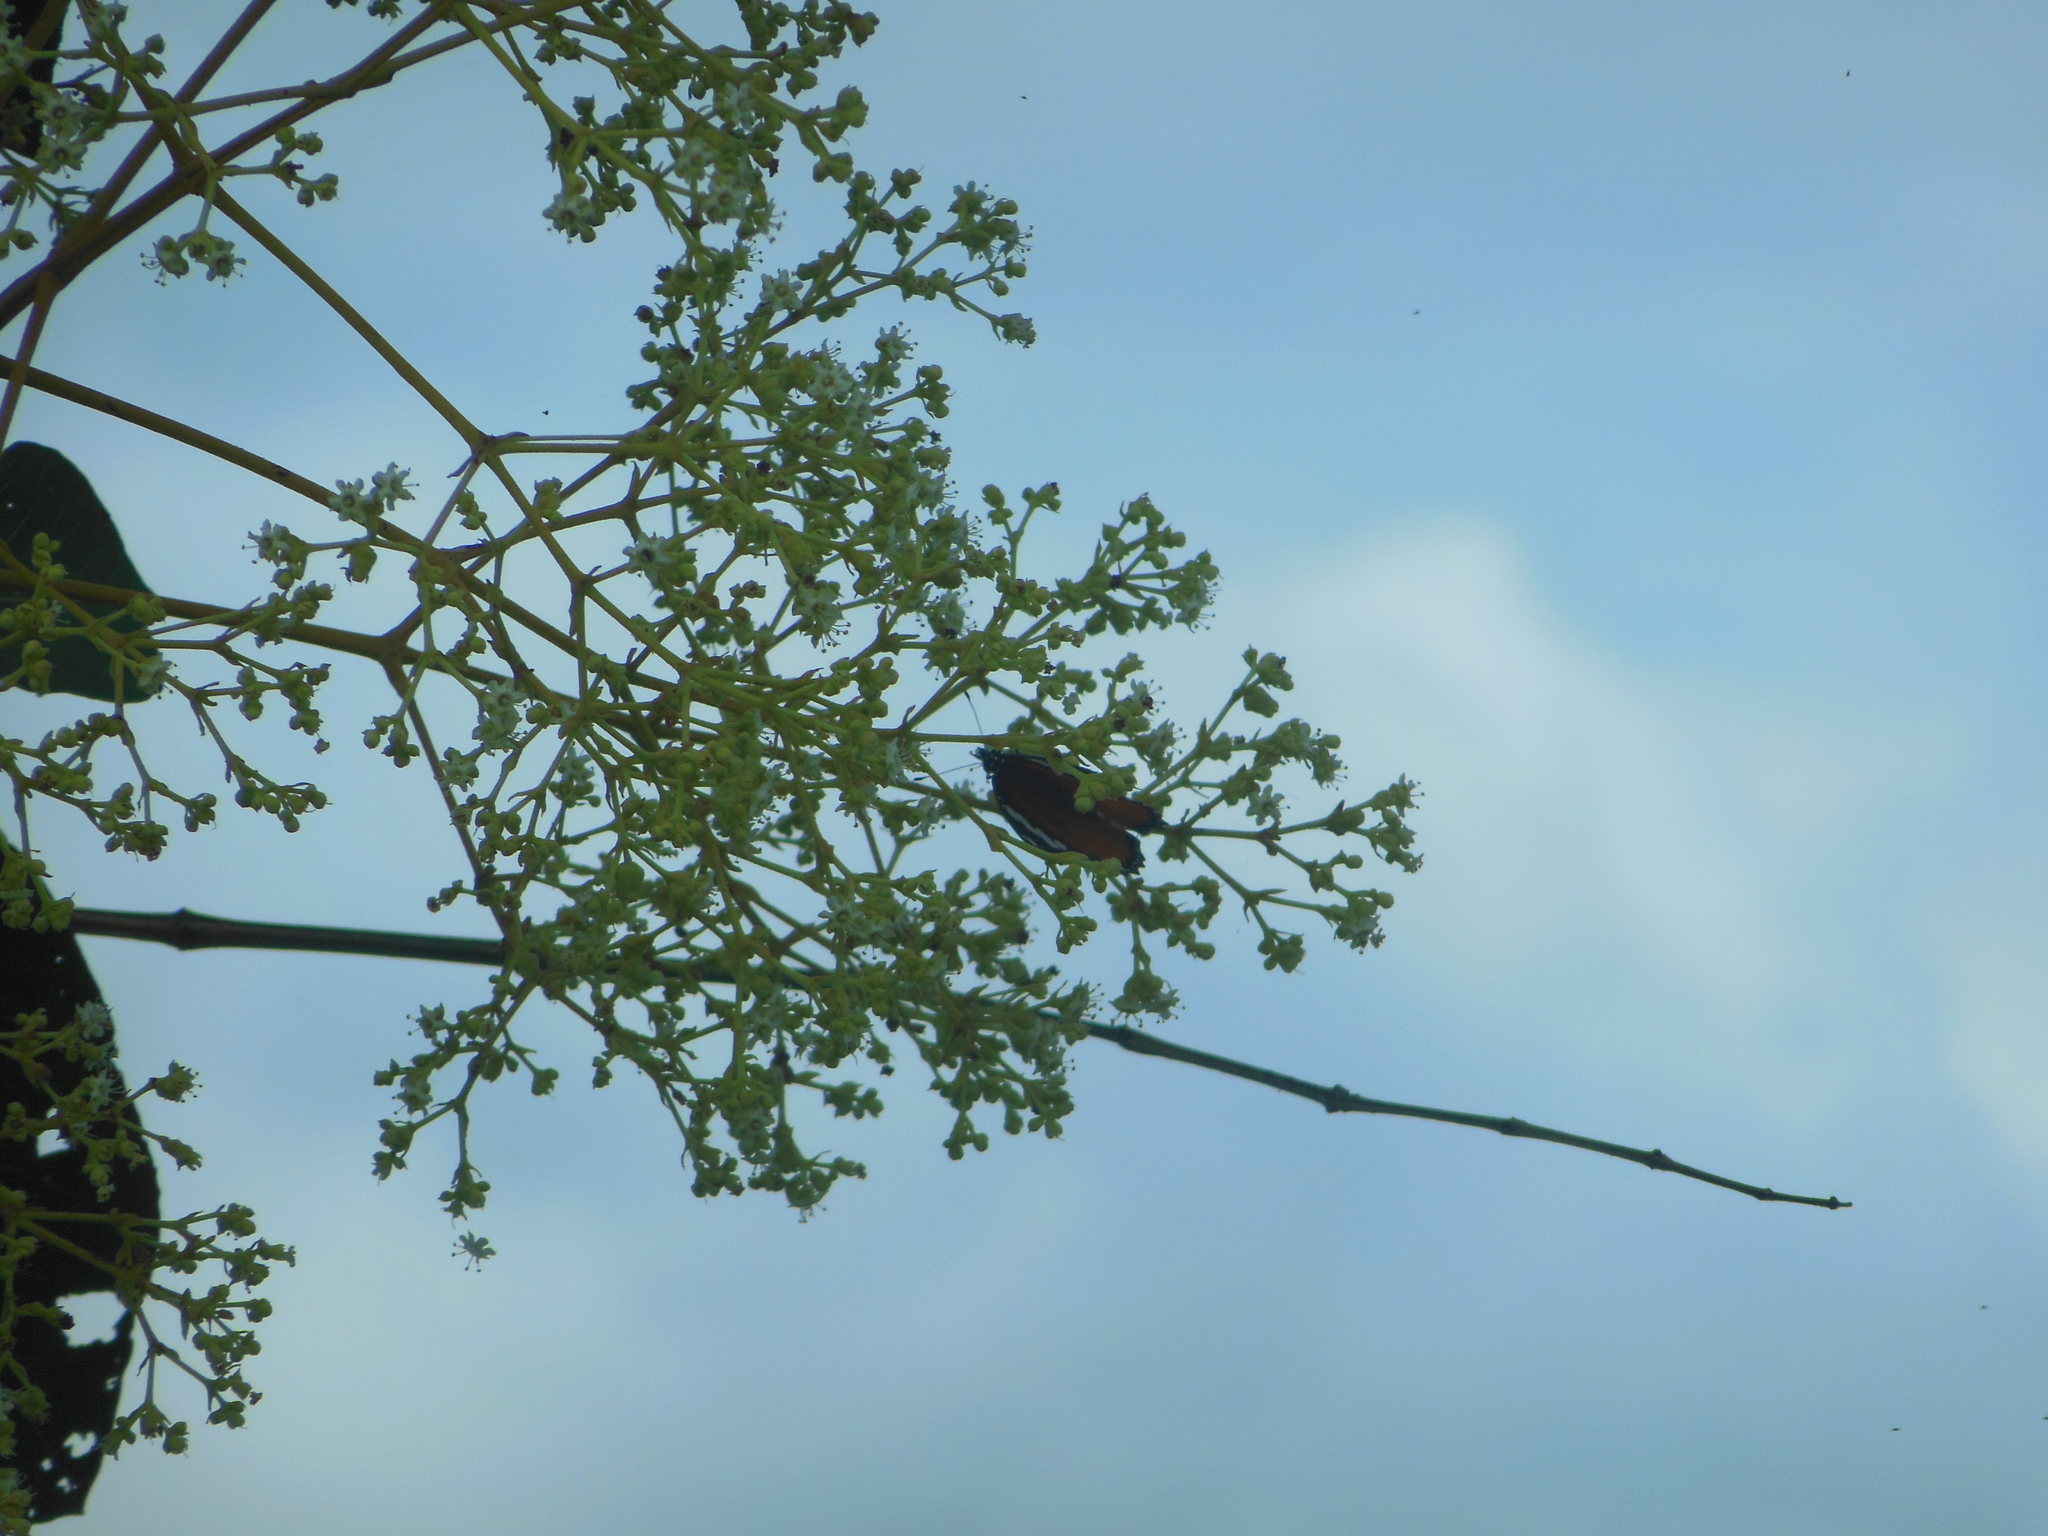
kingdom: Animalia
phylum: Arthropoda
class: Insecta
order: Lepidoptera
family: Nymphalidae
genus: Danaus
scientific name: Danaus chrysippus
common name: Plain tiger
